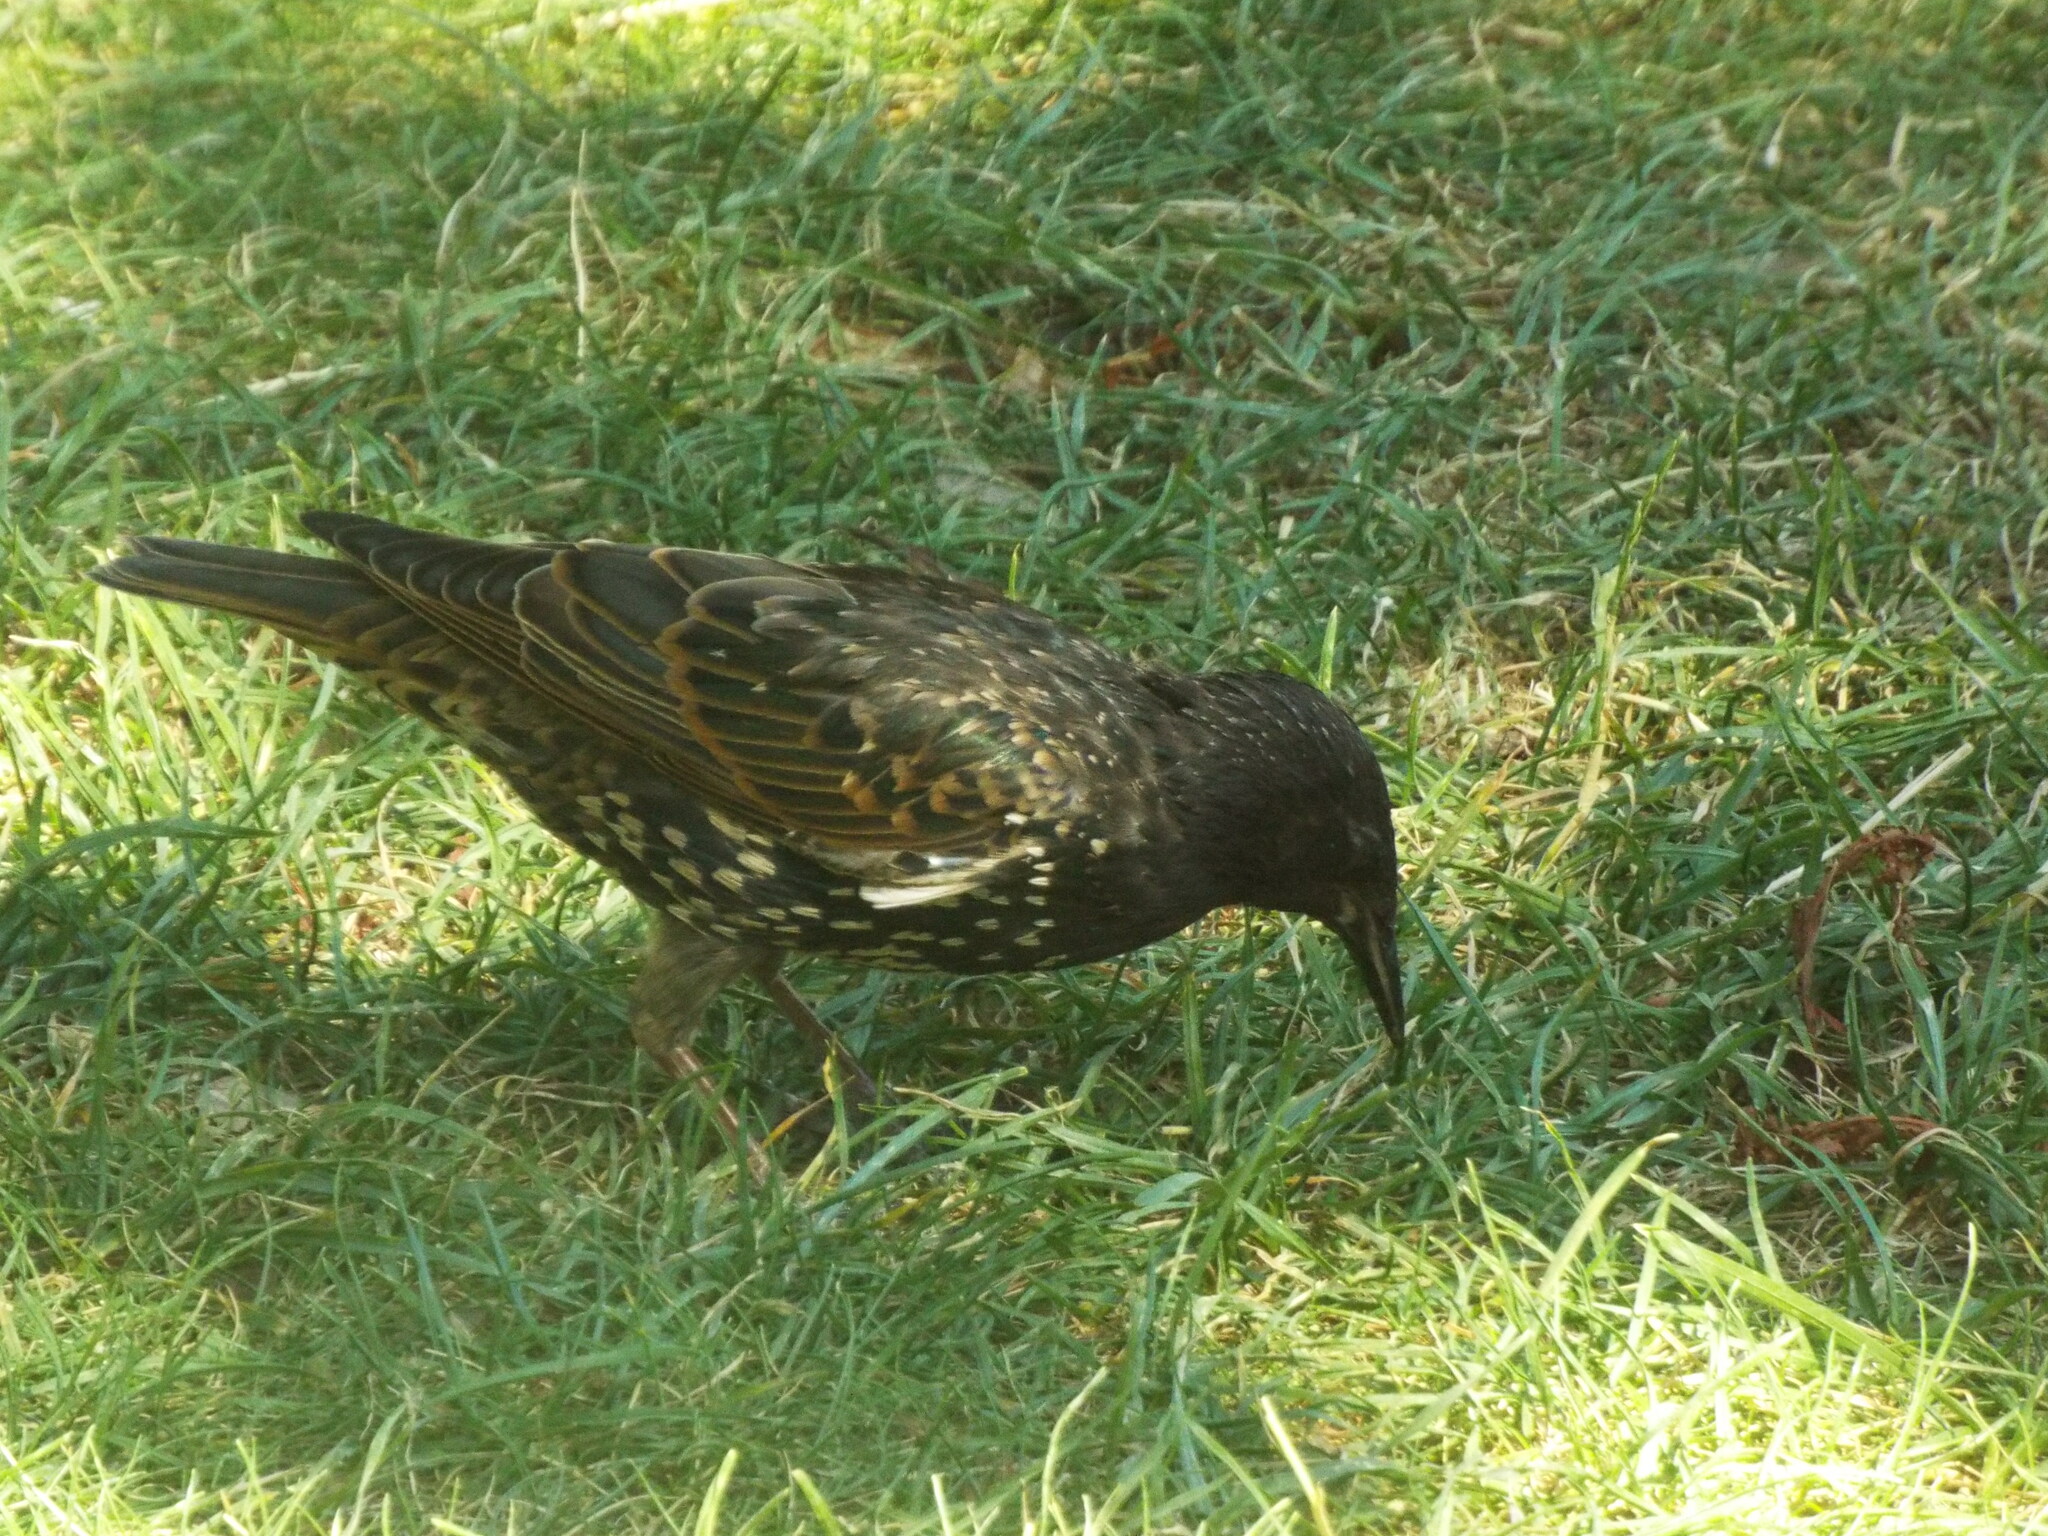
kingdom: Animalia
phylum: Chordata
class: Aves
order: Passeriformes
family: Sturnidae
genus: Sturnus
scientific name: Sturnus vulgaris
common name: Common starling
